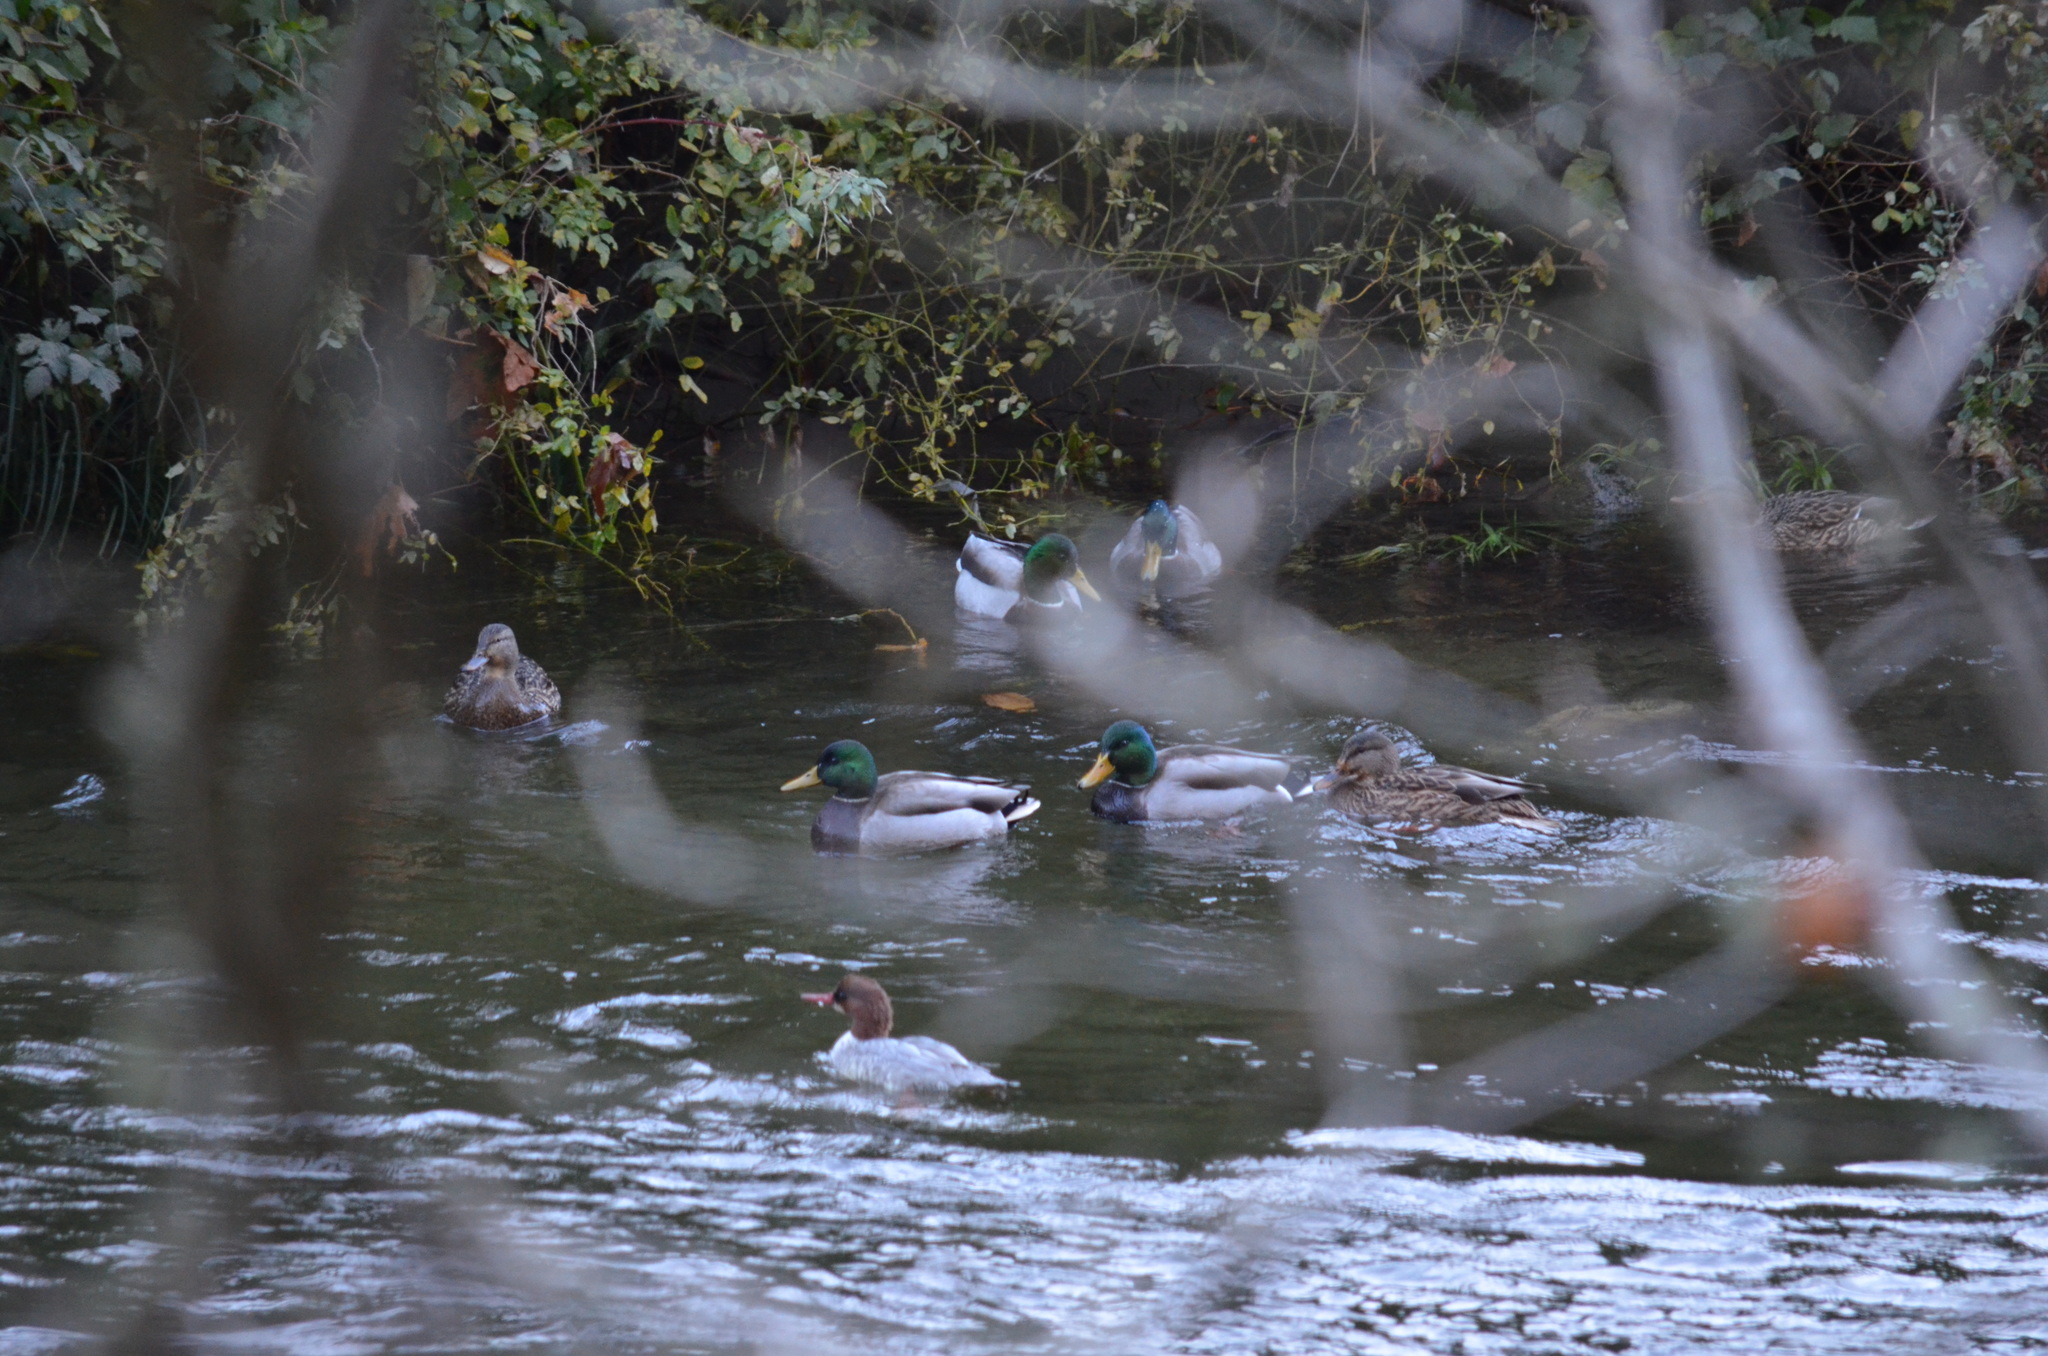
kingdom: Animalia
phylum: Chordata
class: Aves
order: Anseriformes
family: Anatidae
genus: Anas
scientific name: Anas platyrhynchos
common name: Mallard
